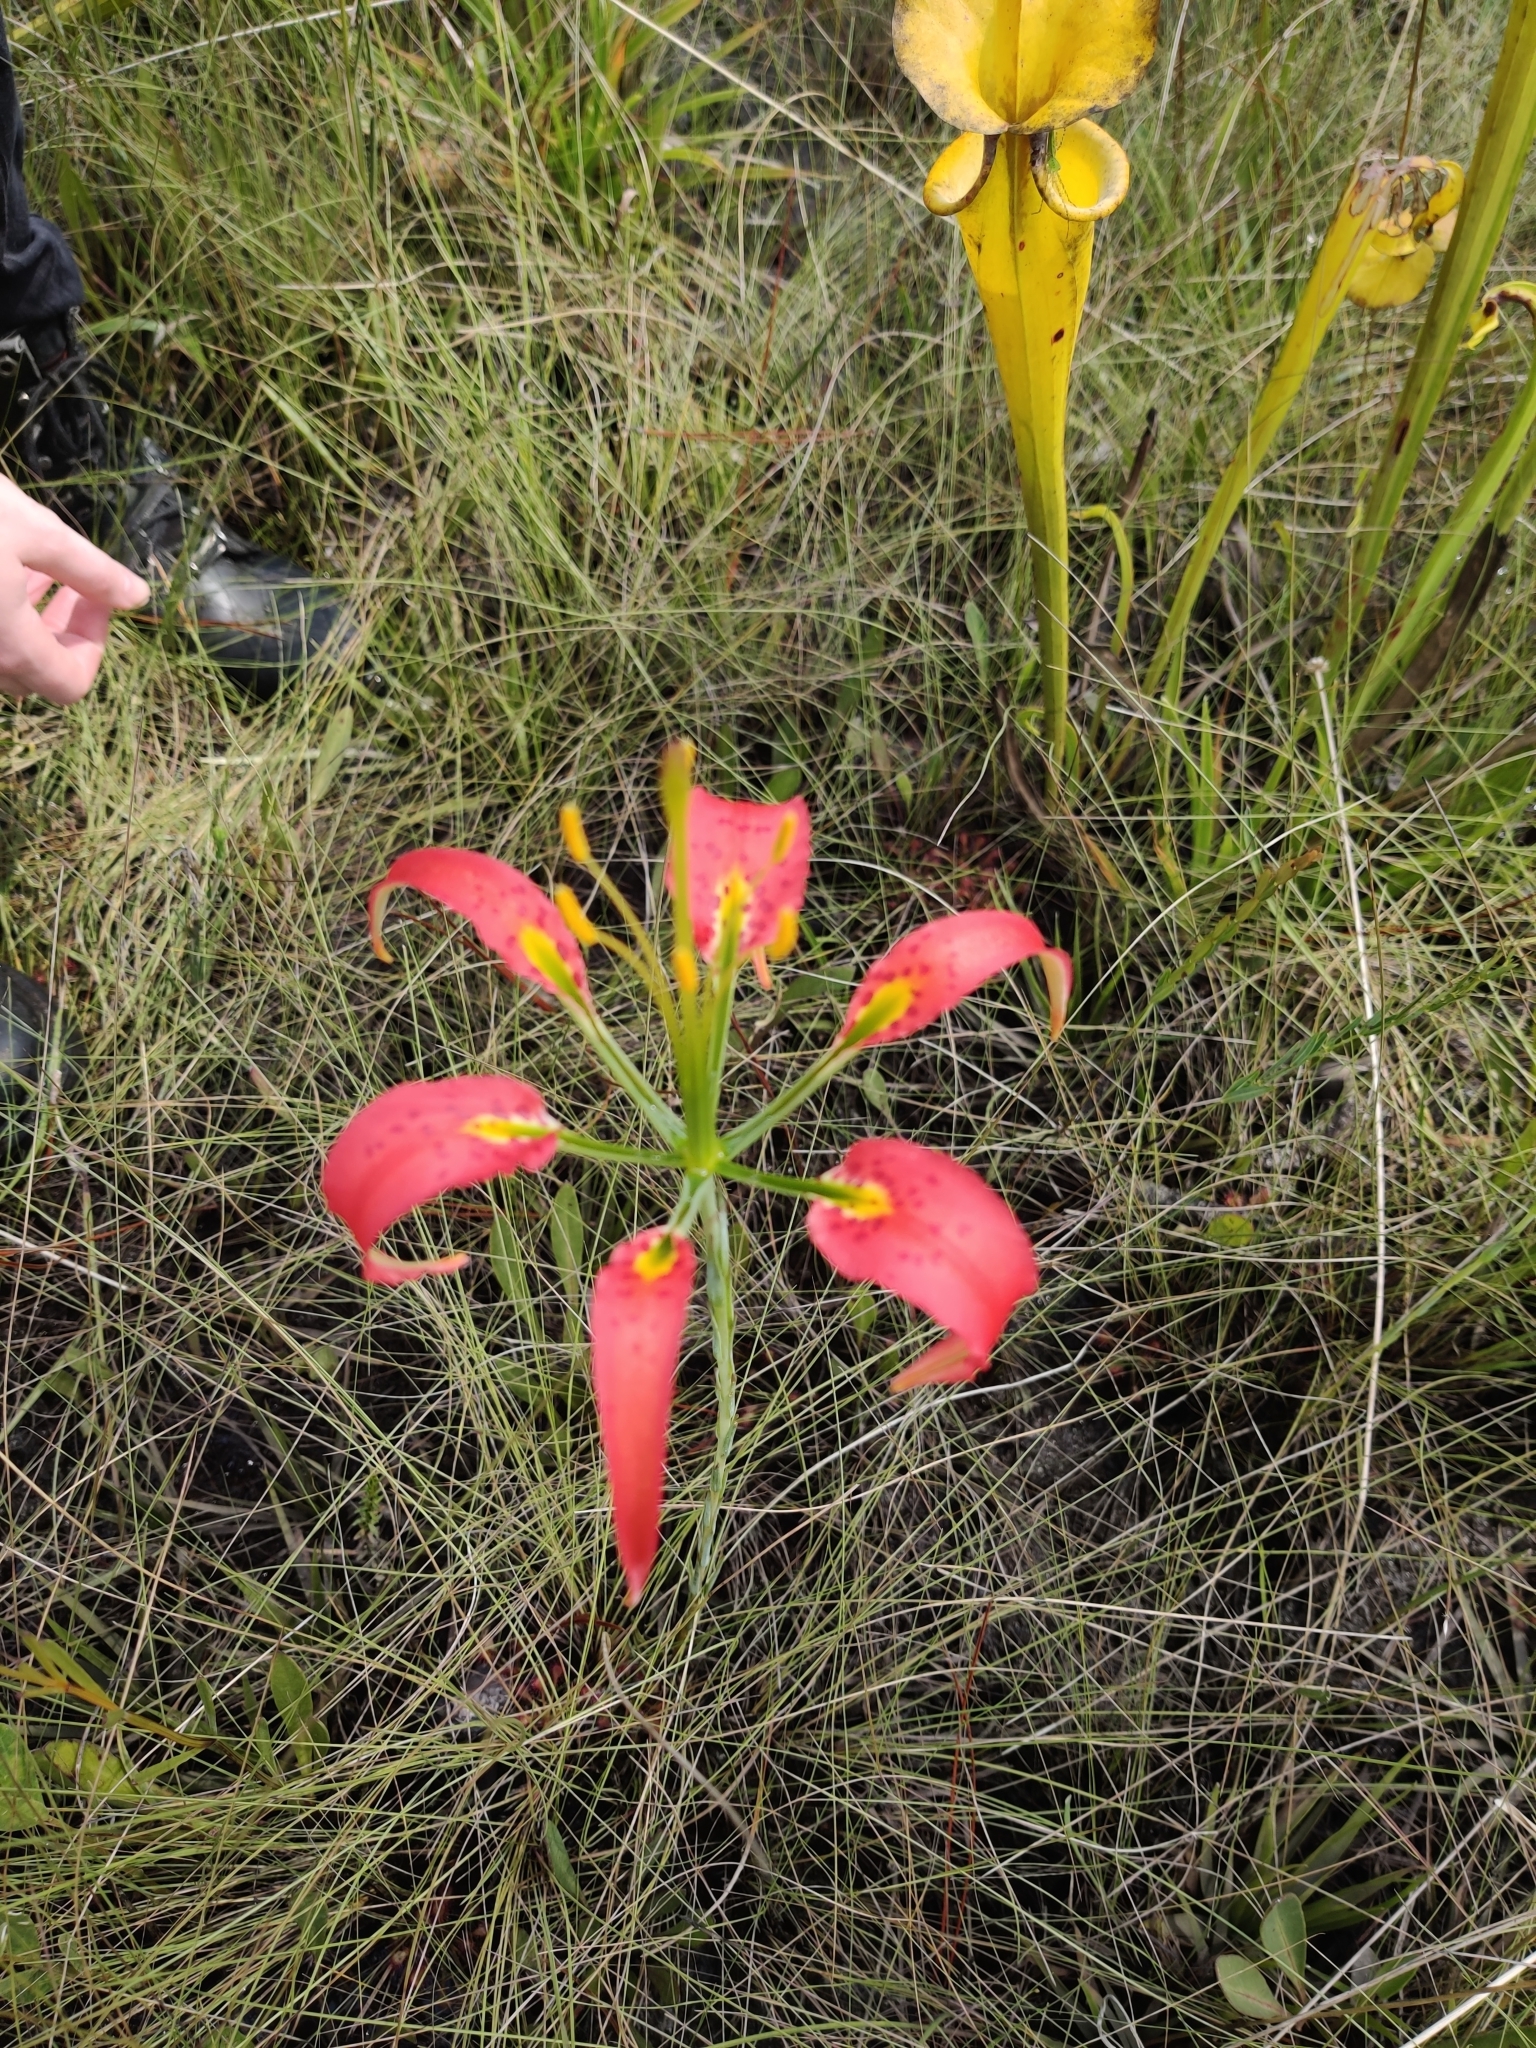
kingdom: Plantae
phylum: Tracheophyta
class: Liliopsida
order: Liliales
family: Liliaceae
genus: Lilium
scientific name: Lilium catesbaei
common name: Catesby's lily
